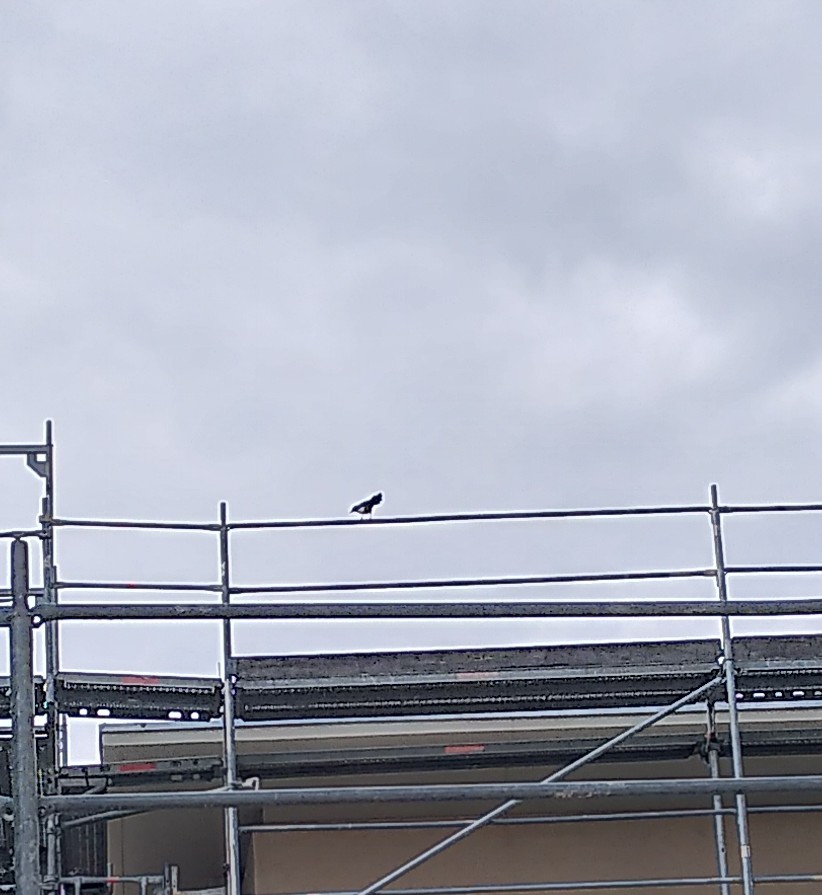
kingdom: Animalia
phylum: Chordata
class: Aves
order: Passeriformes
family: Corvidae
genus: Pica
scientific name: Pica pica
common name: Eurasian magpie
